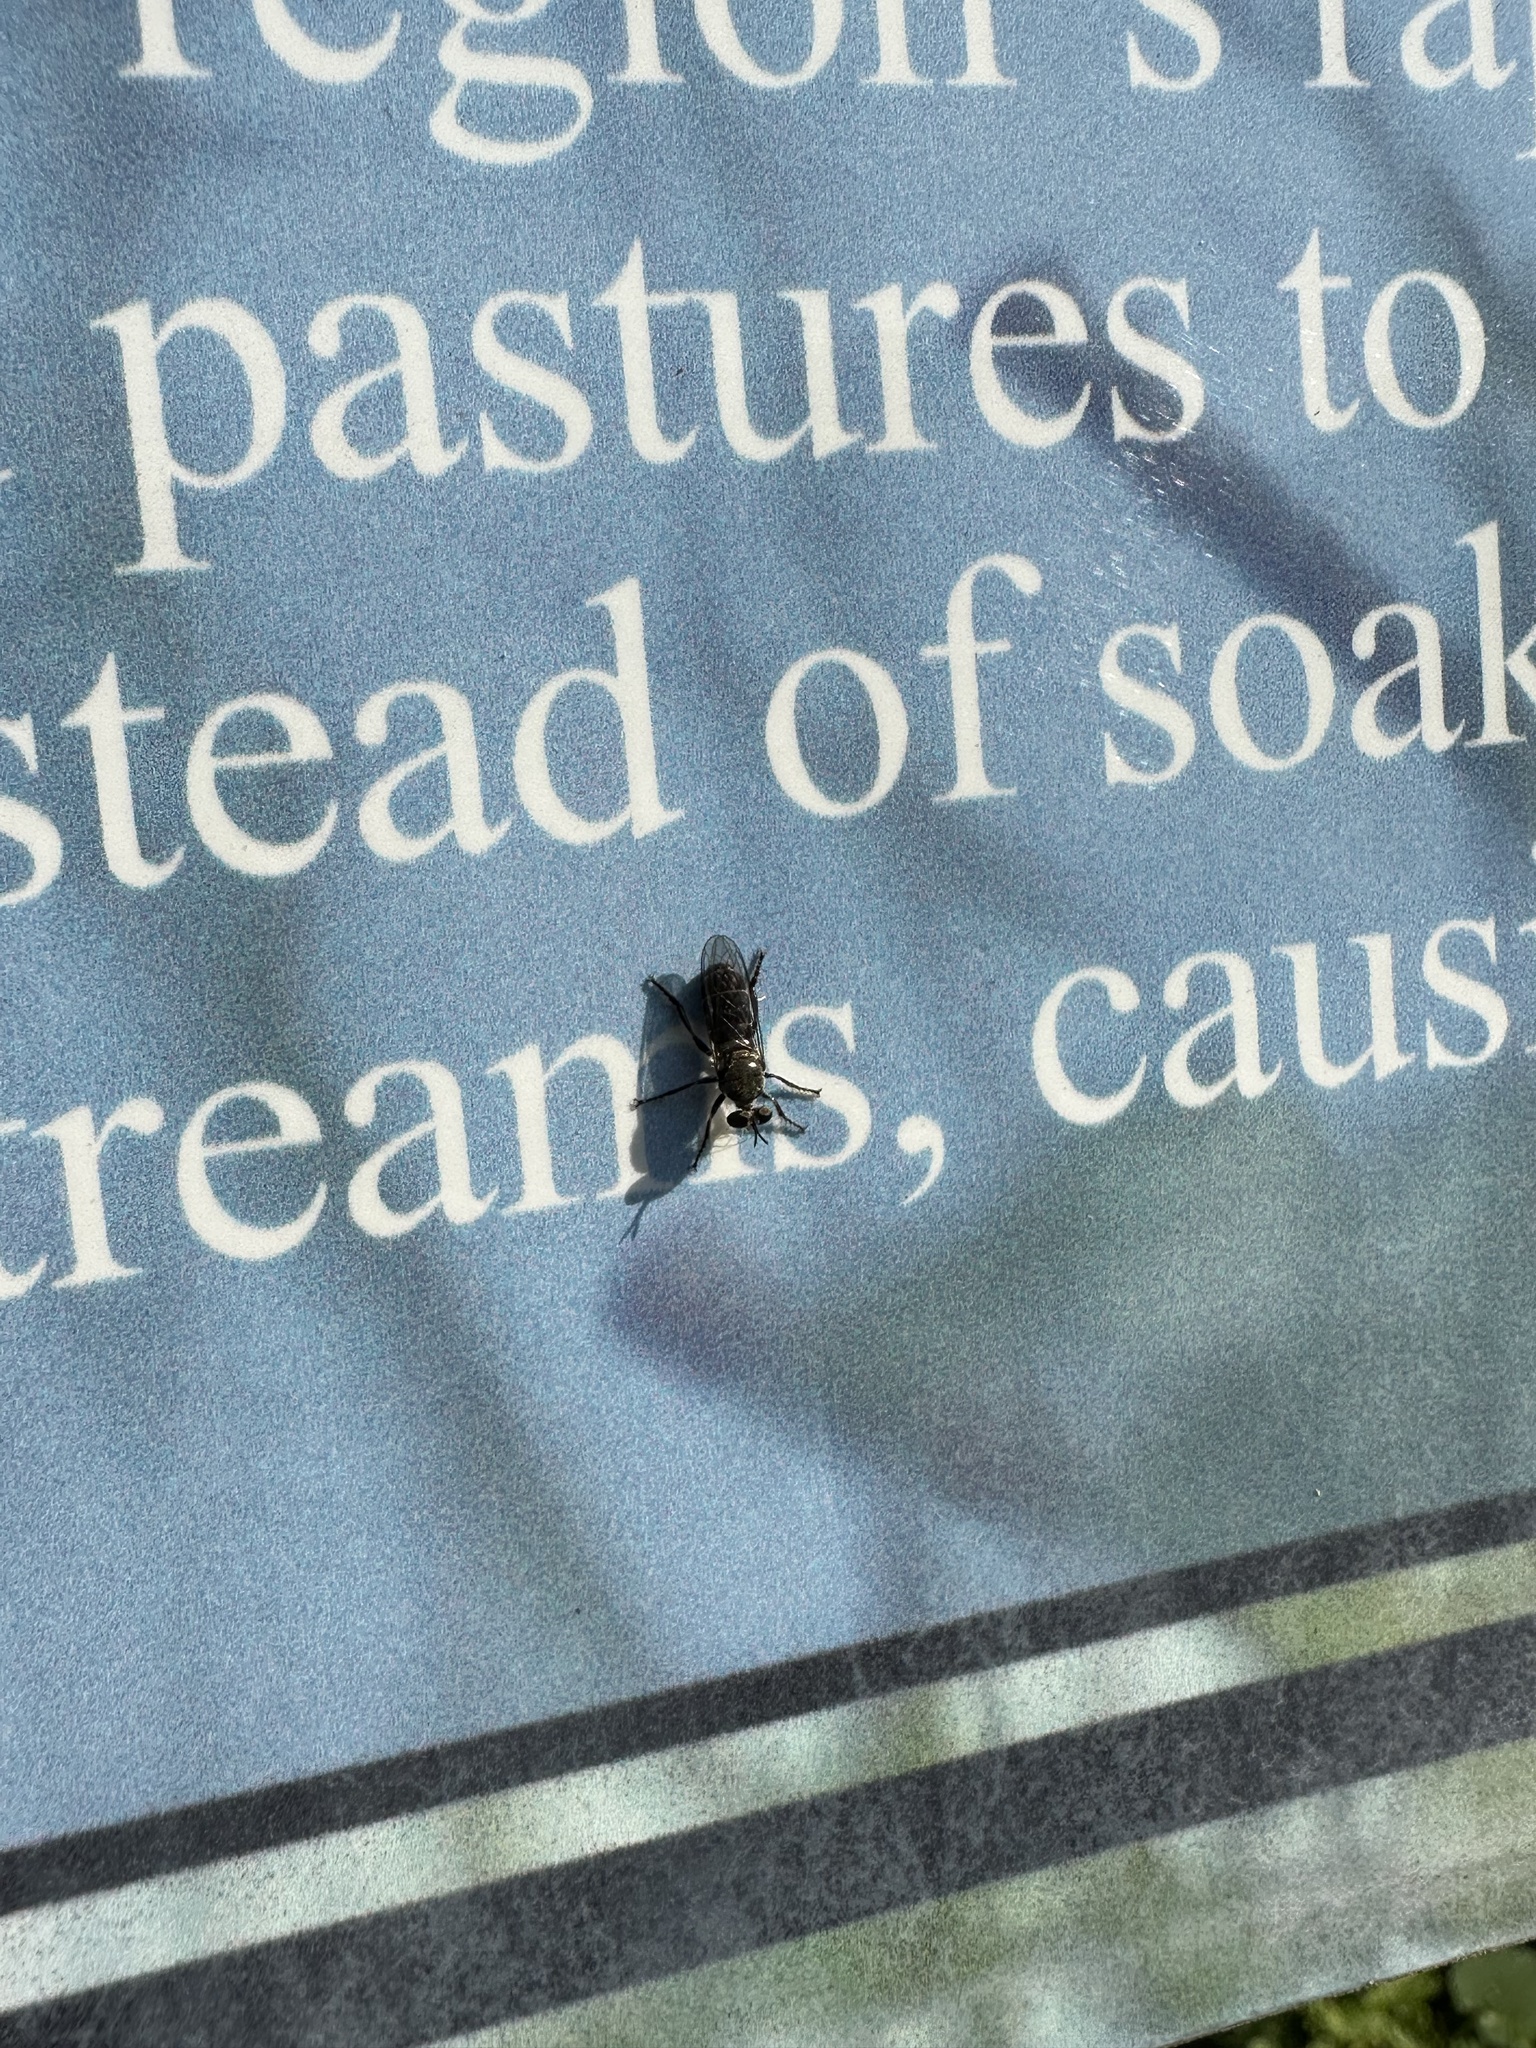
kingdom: Animalia
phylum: Arthropoda
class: Insecta
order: Diptera
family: Asilidae
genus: Atomosia
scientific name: Atomosia puella
